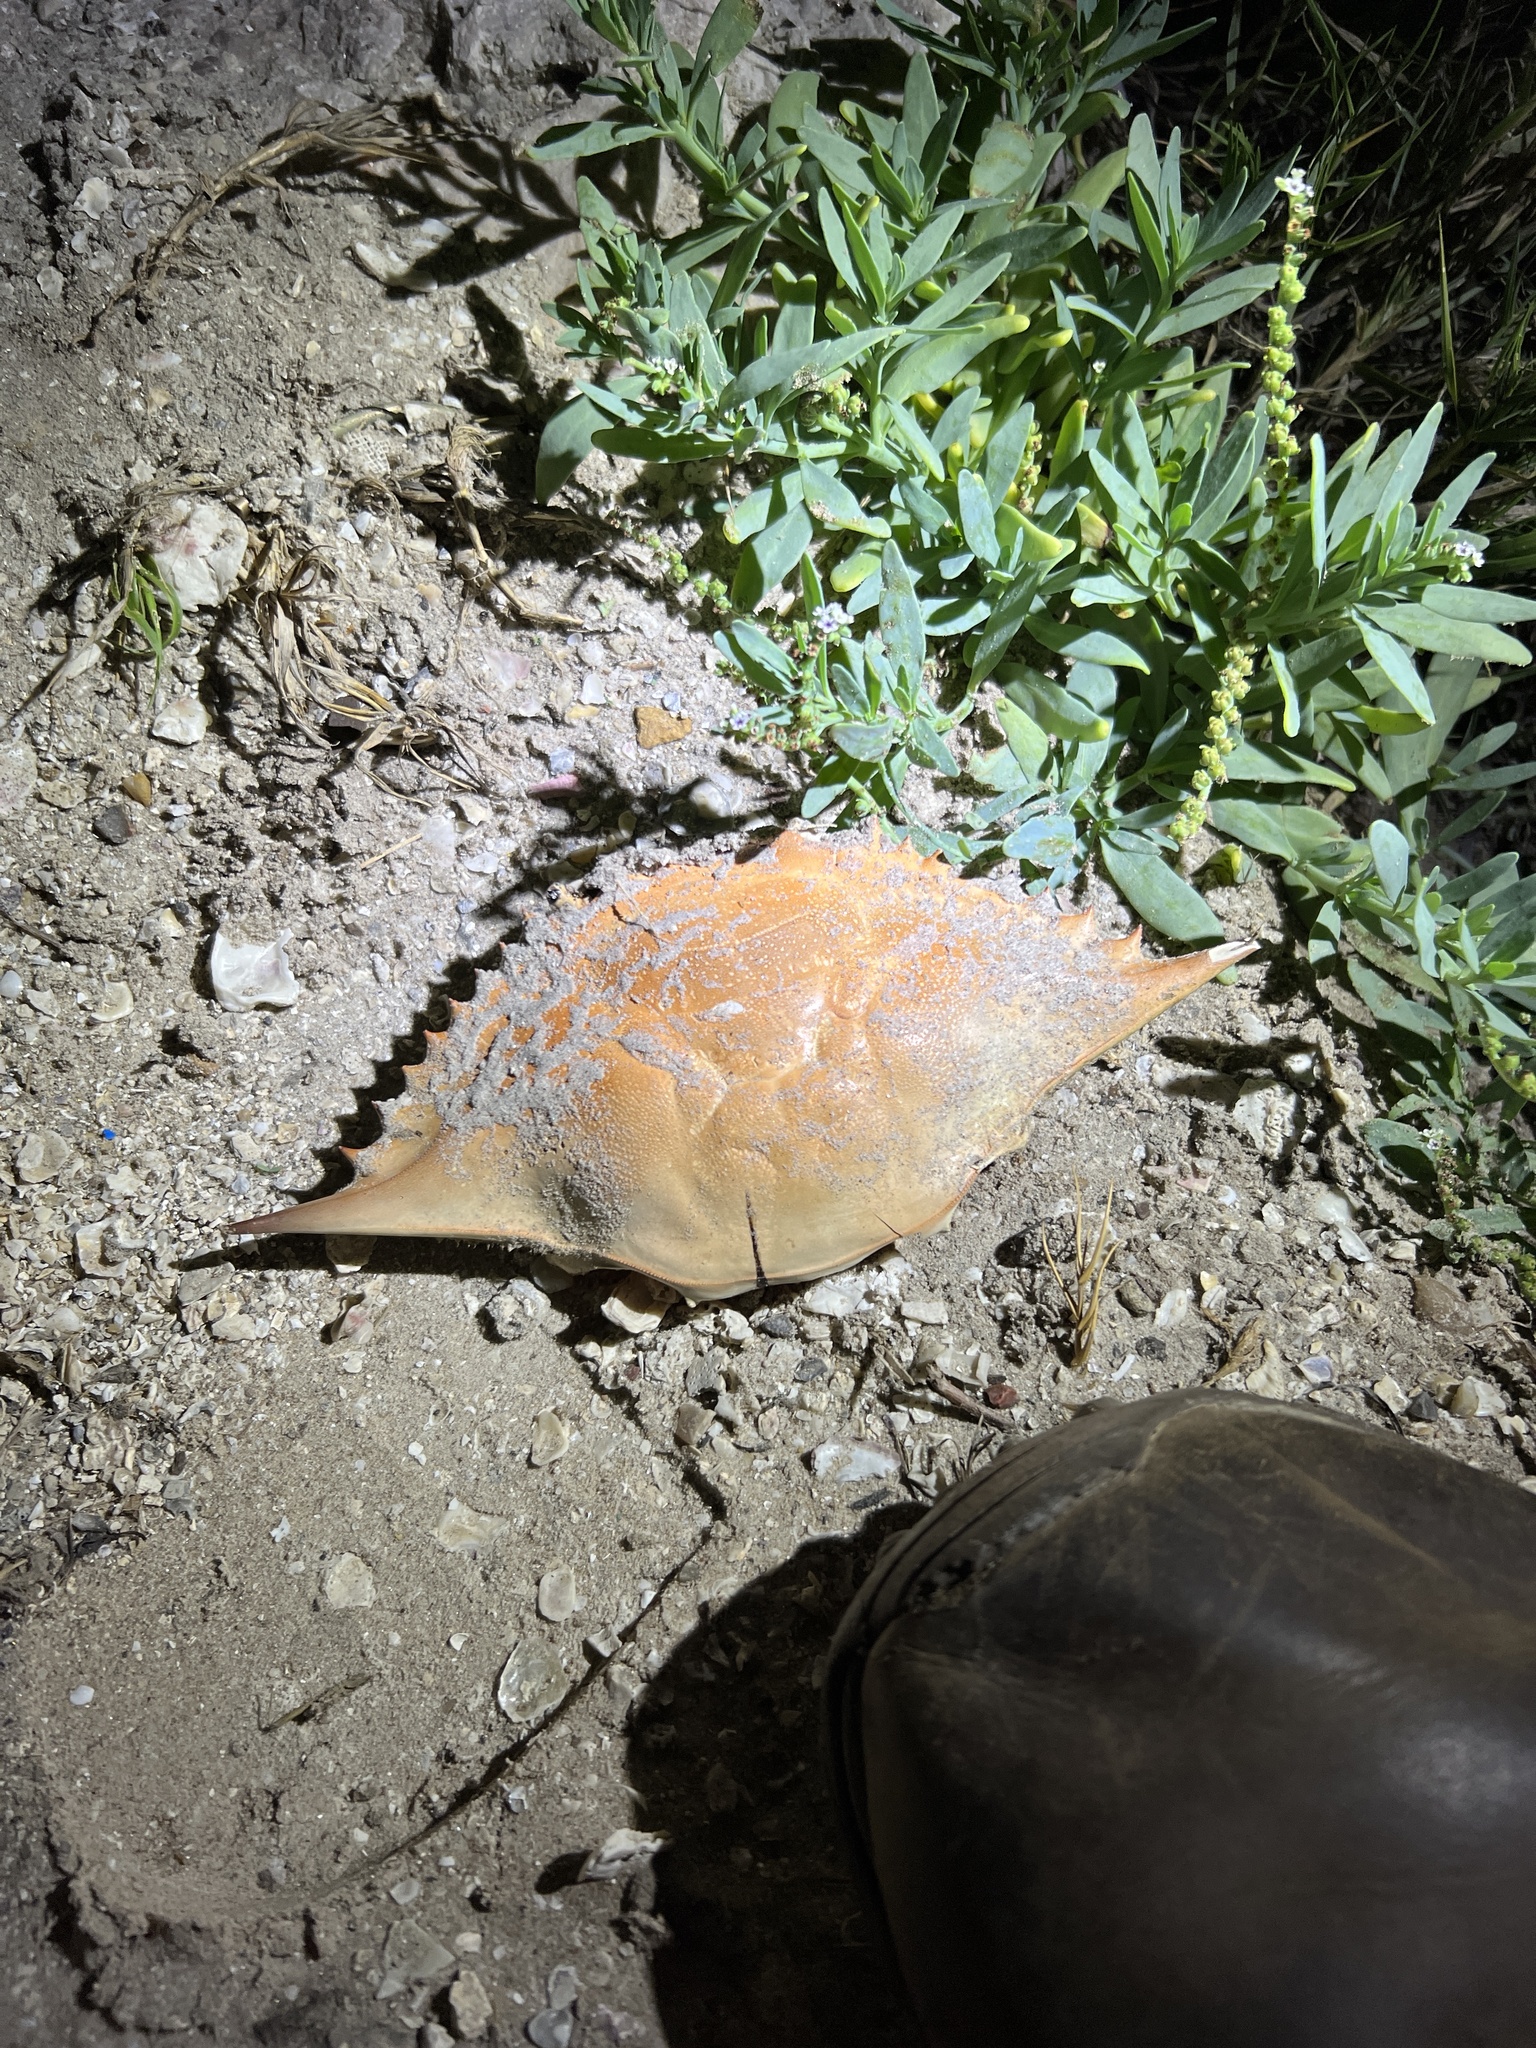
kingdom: Animalia
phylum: Arthropoda
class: Malacostraca
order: Decapoda
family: Portunidae
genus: Callinectes
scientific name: Callinectes sapidus
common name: Blue crab
